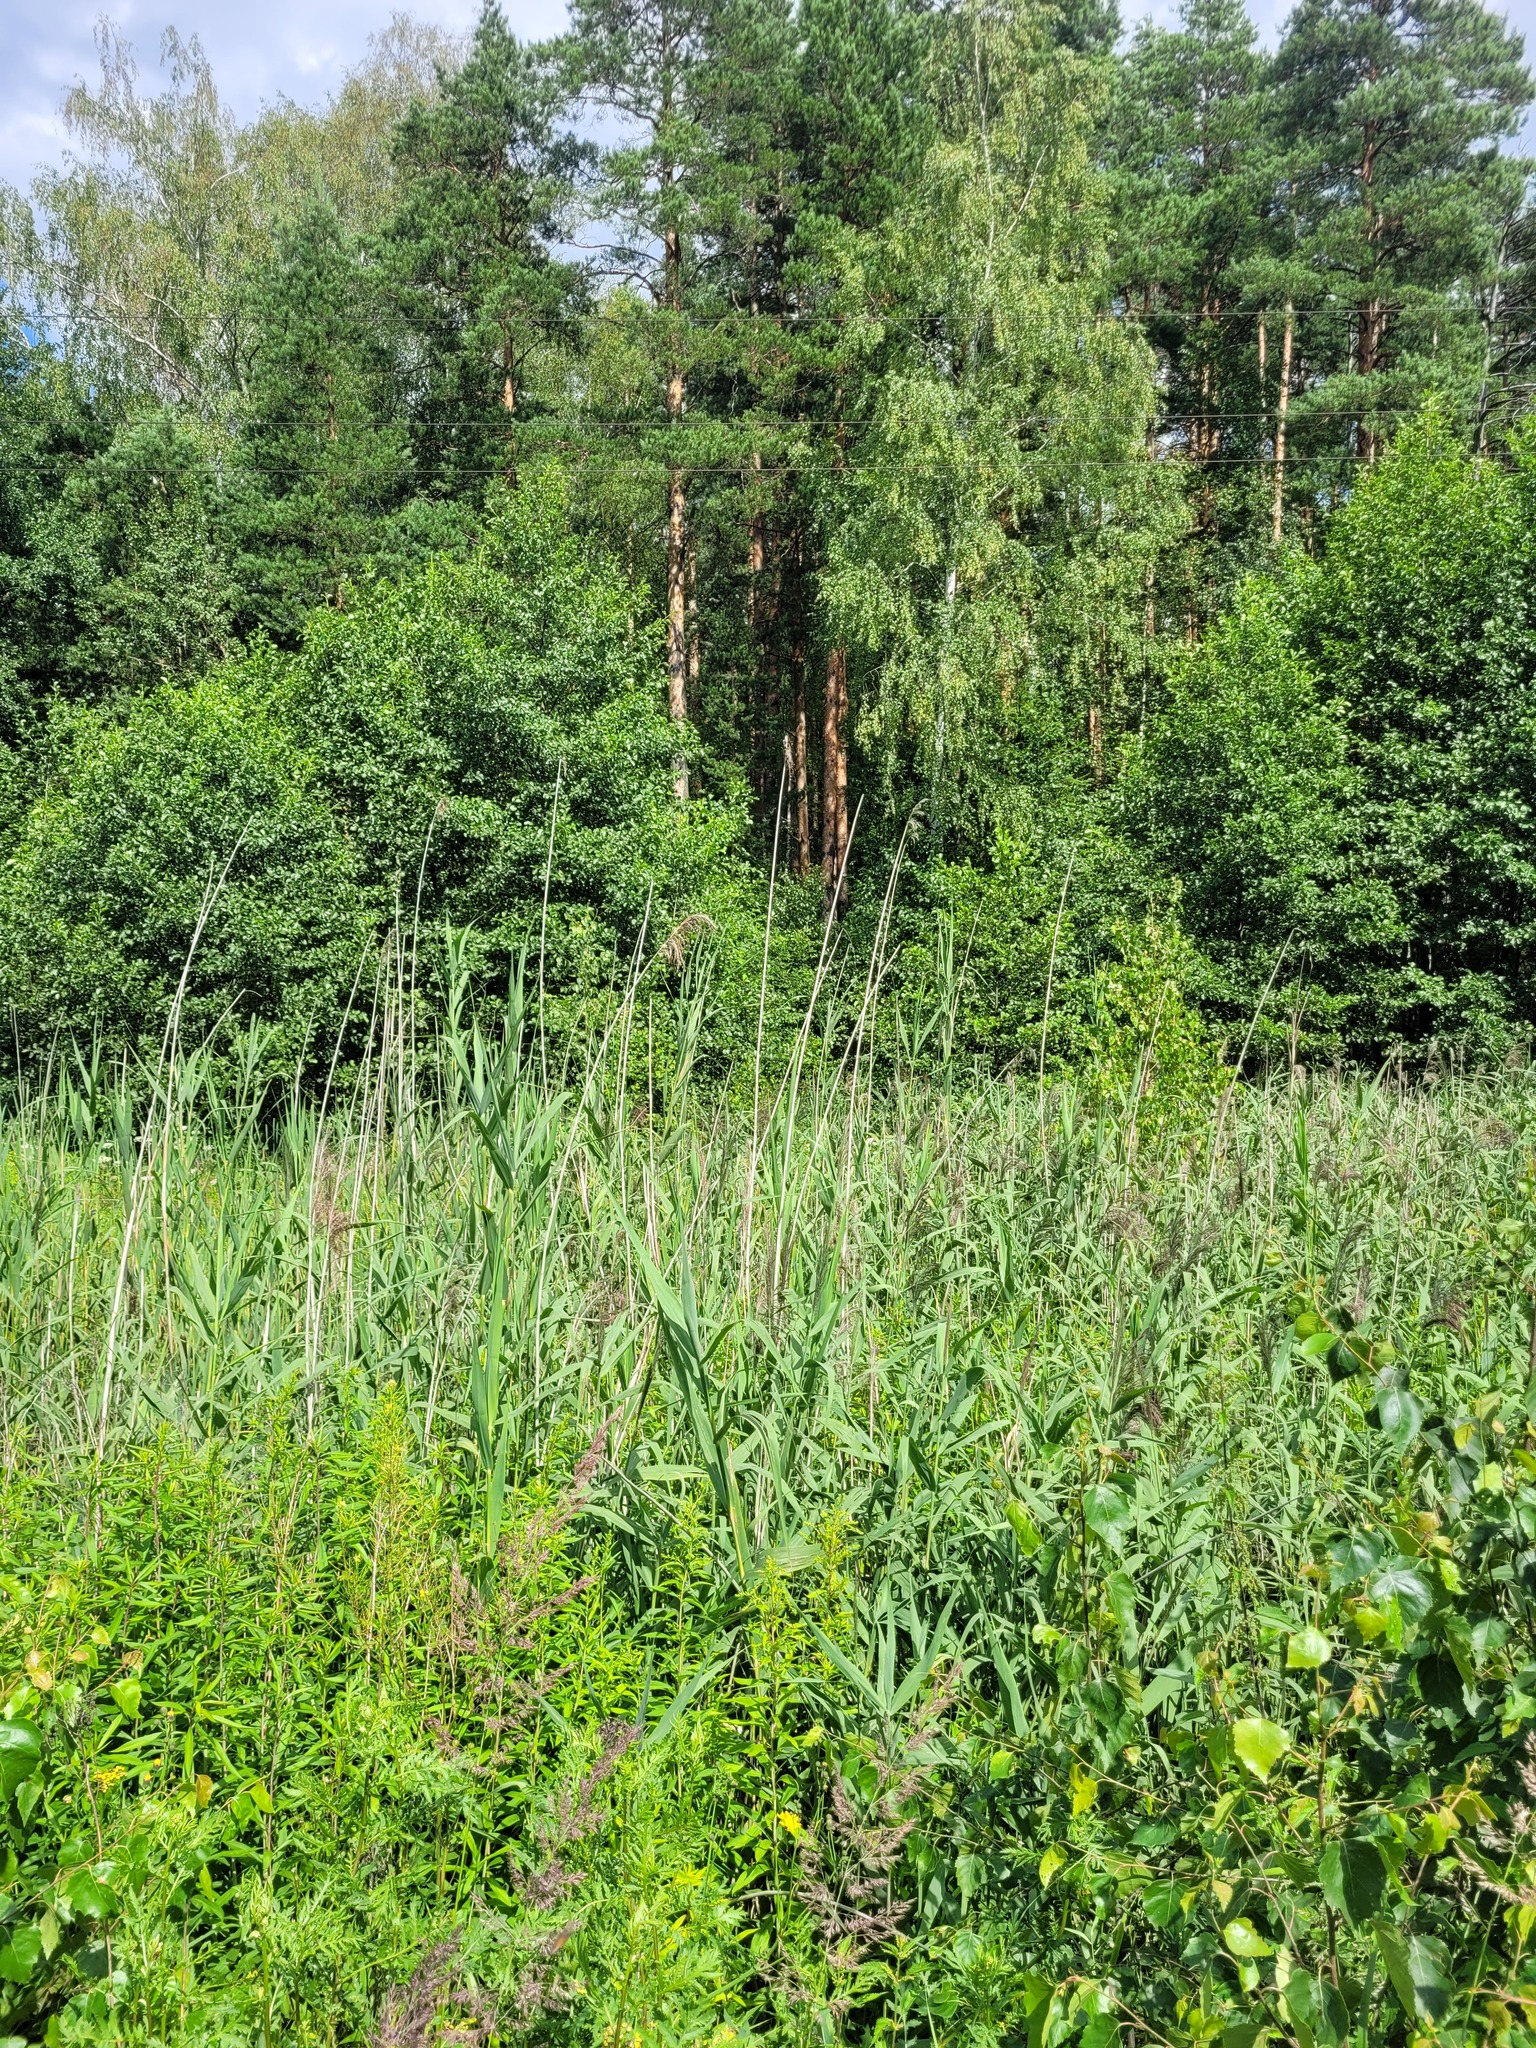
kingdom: Plantae
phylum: Tracheophyta
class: Liliopsida
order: Poales
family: Poaceae
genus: Phragmites
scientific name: Phragmites australis
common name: Common reed
